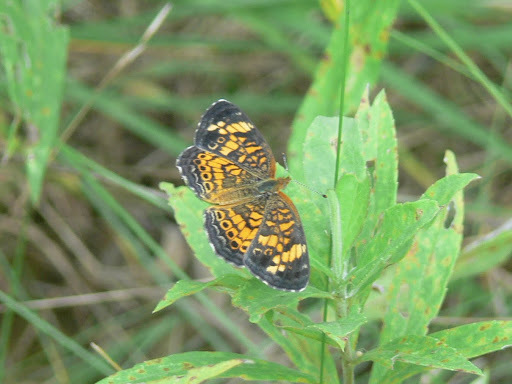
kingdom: Animalia
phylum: Arthropoda
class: Insecta
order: Lepidoptera
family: Nymphalidae
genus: Phyciodes
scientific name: Phyciodes tharos
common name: Pearl crescent
